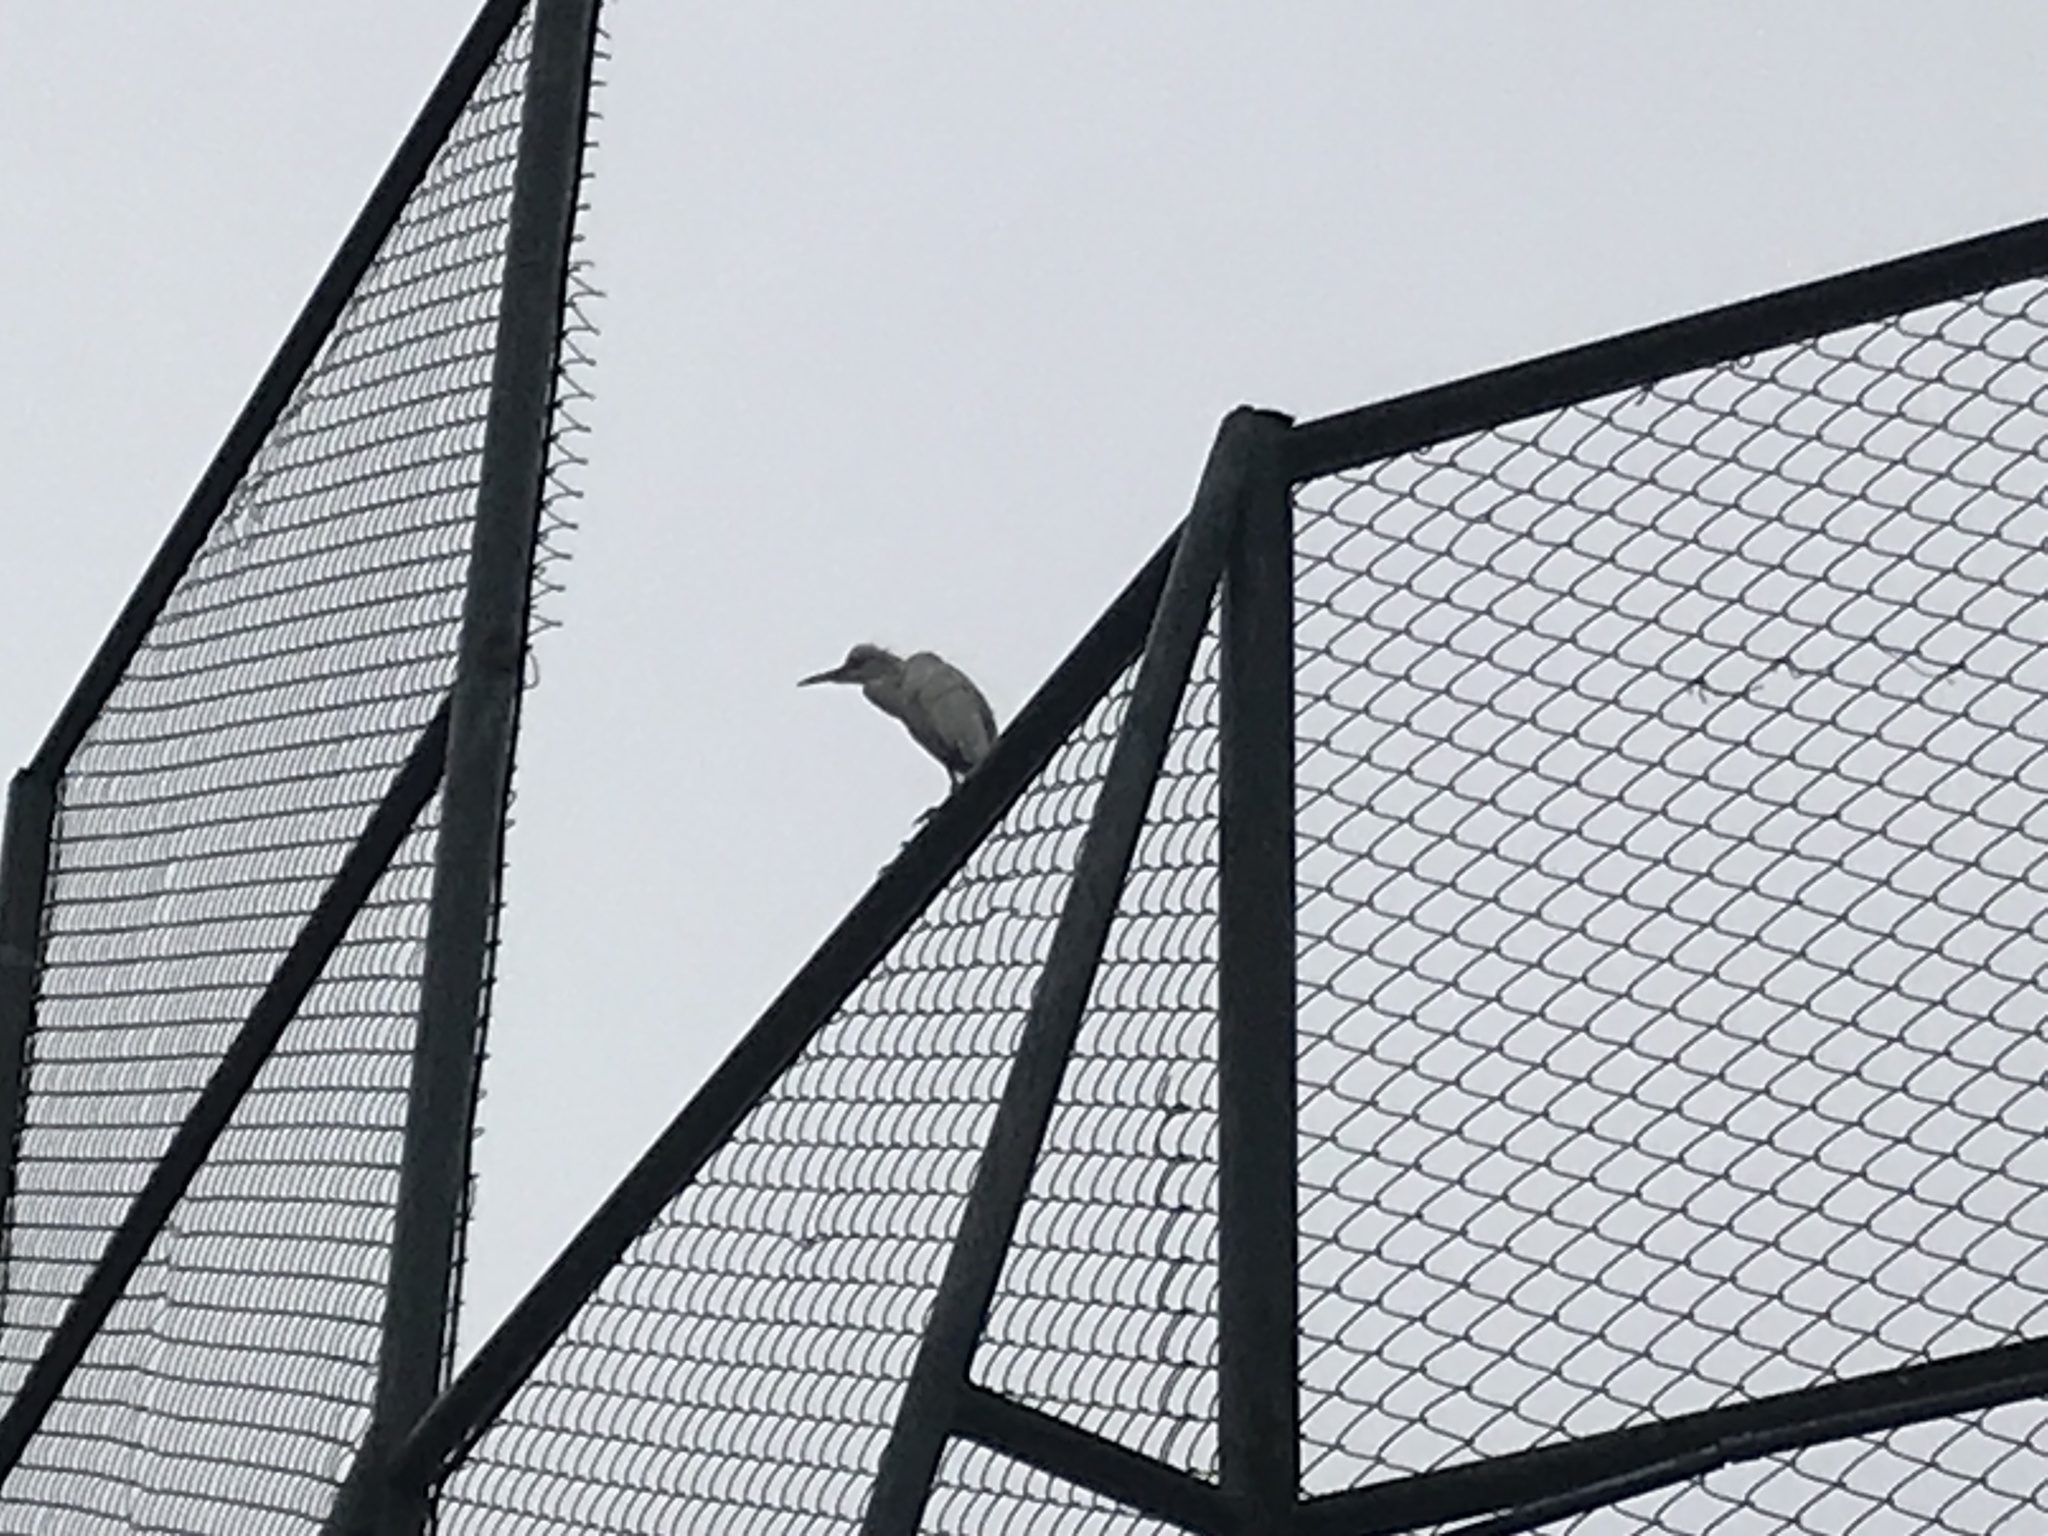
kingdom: Animalia
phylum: Chordata
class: Aves
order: Pelecaniformes
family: Ardeidae
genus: Bubulcus
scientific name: Bubulcus coromandus
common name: Eastern cattle egret
